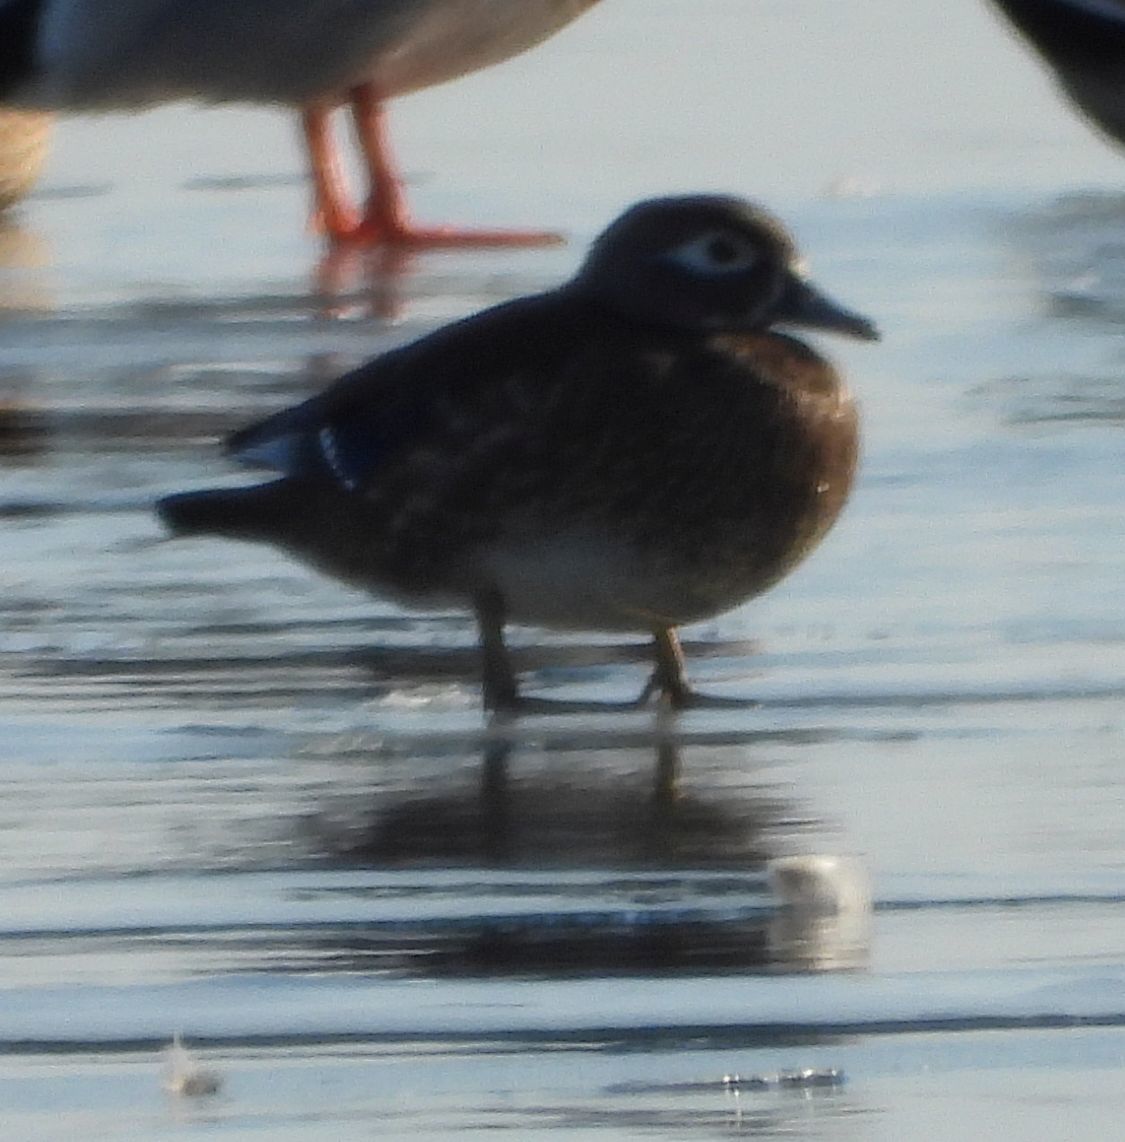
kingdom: Animalia
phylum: Chordata
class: Aves
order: Anseriformes
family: Anatidae
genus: Aix
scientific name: Aix sponsa
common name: Wood duck
